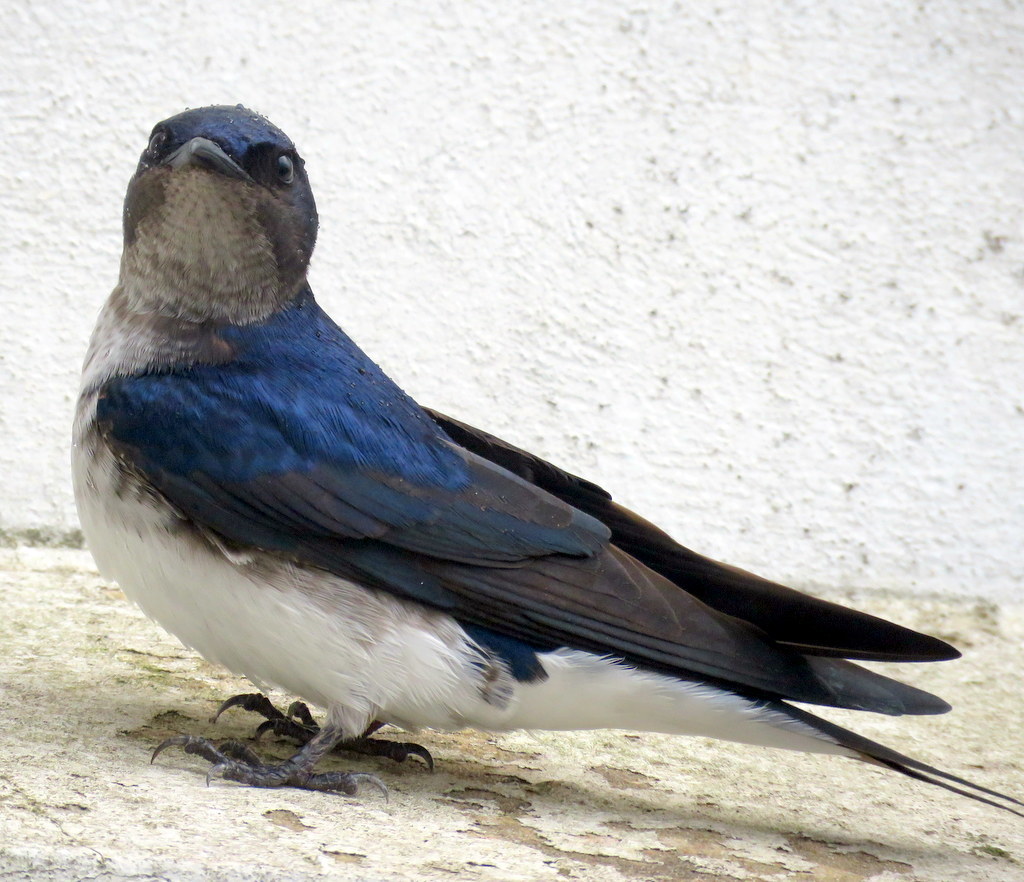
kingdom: Animalia
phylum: Chordata
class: Aves
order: Passeriformes
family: Hirundinidae
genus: Progne
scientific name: Progne chalybea
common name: Grey-breasted martin
